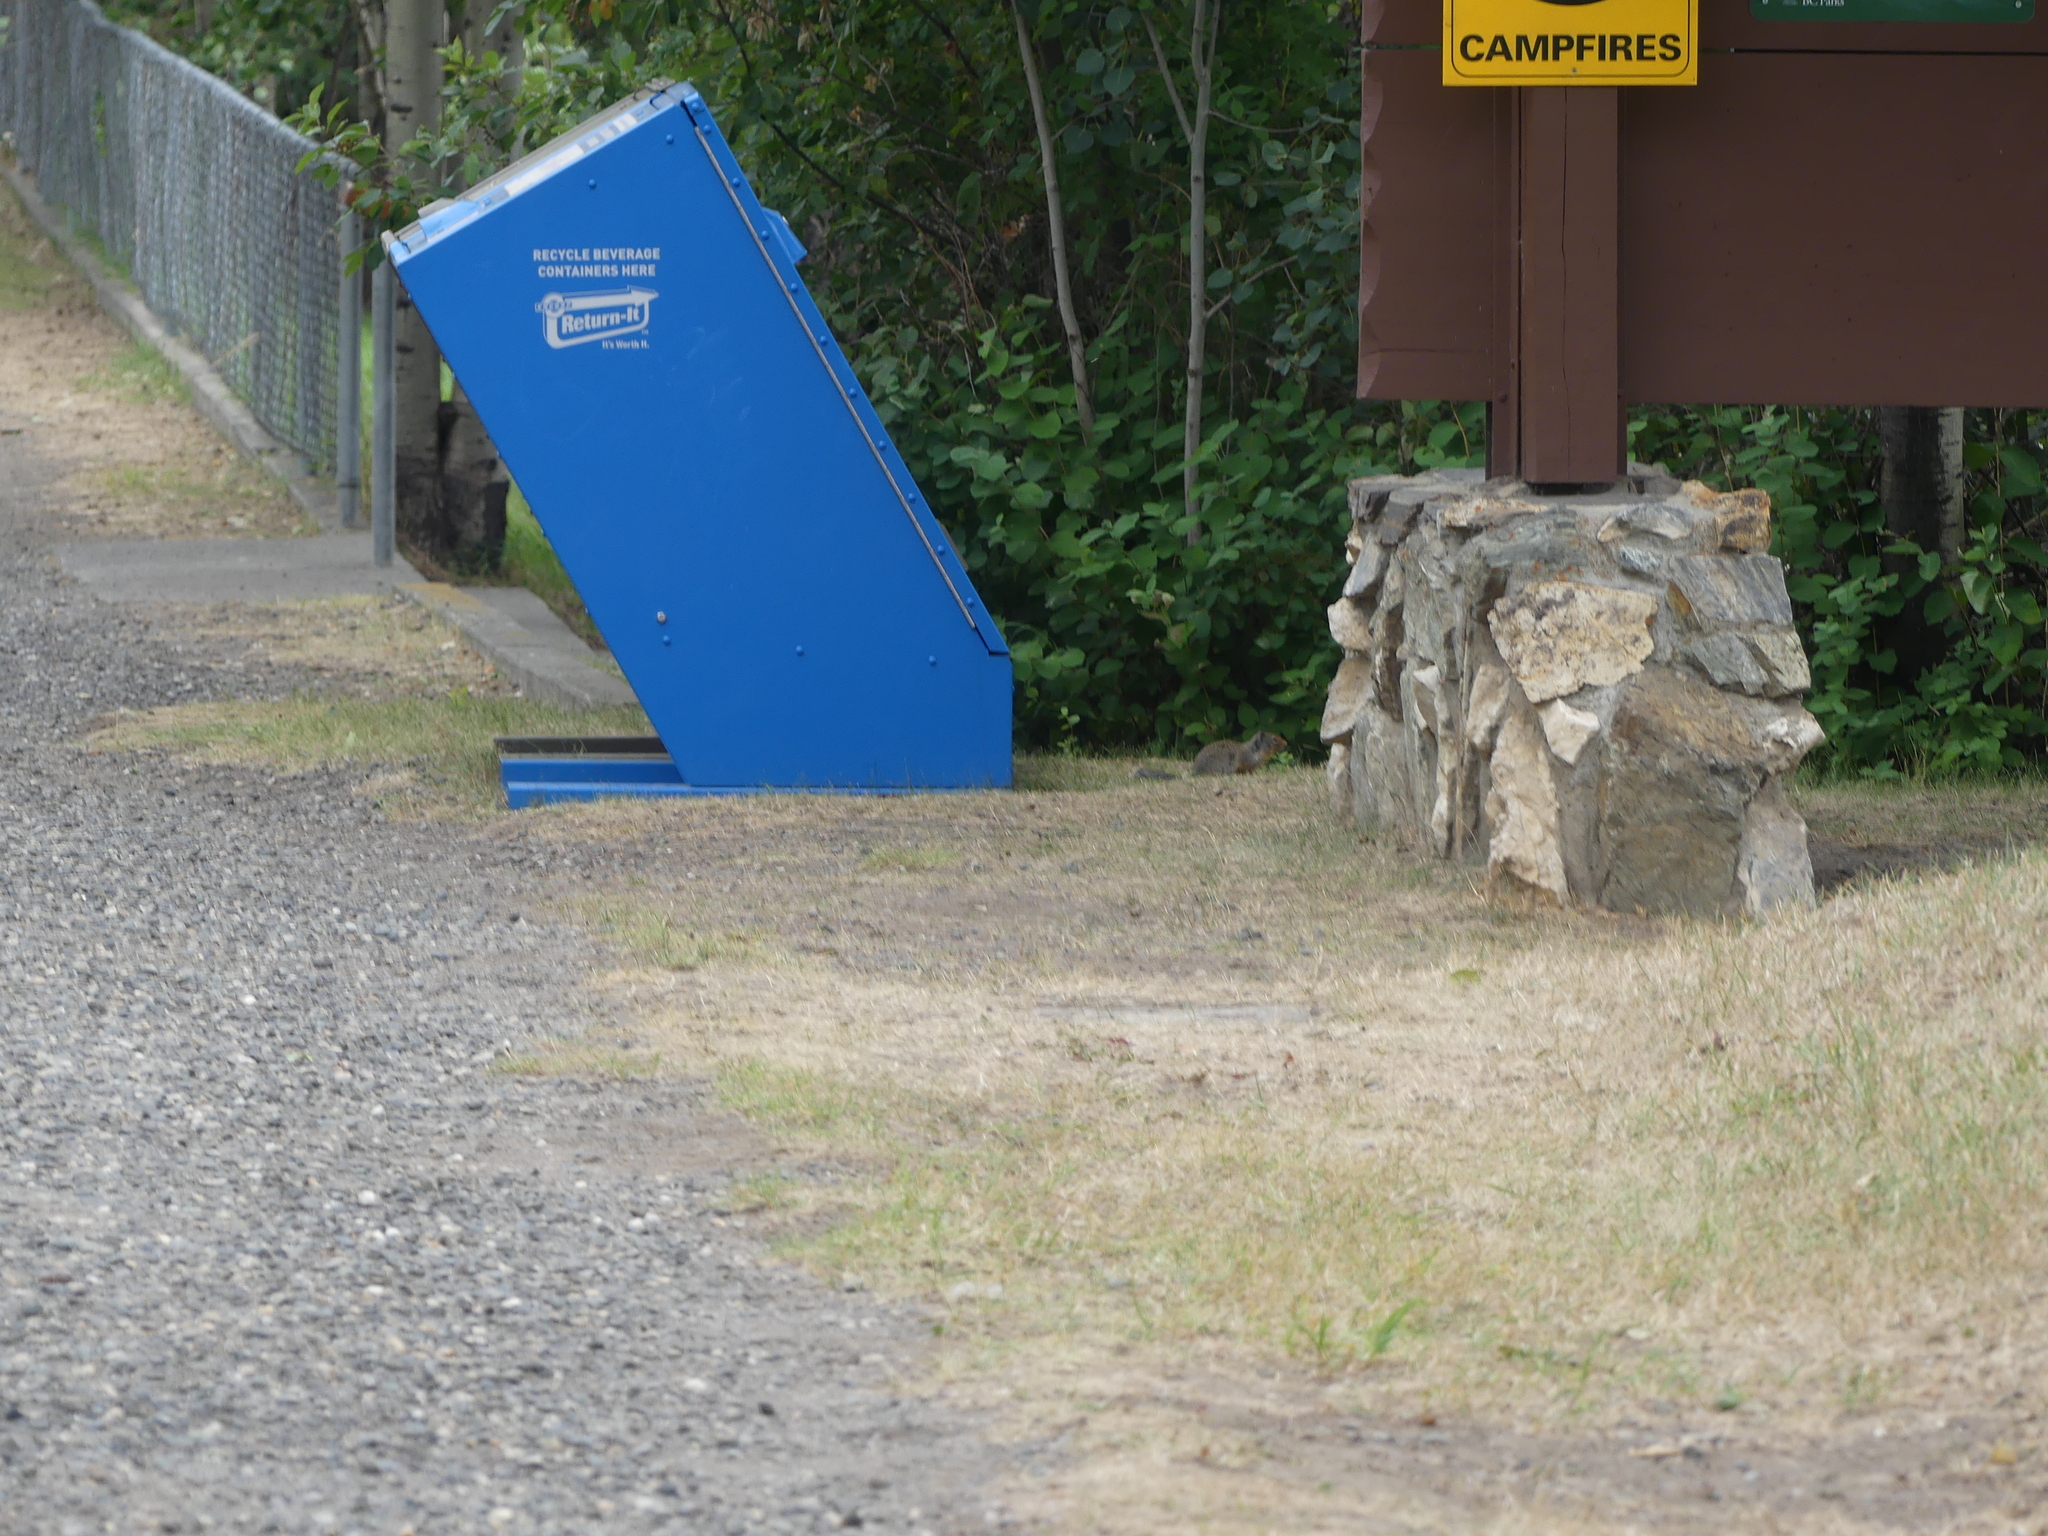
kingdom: Animalia
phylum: Chordata
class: Mammalia
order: Rodentia
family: Sciuridae
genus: Urocitellus
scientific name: Urocitellus columbianus
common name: Columbian ground squirrel
